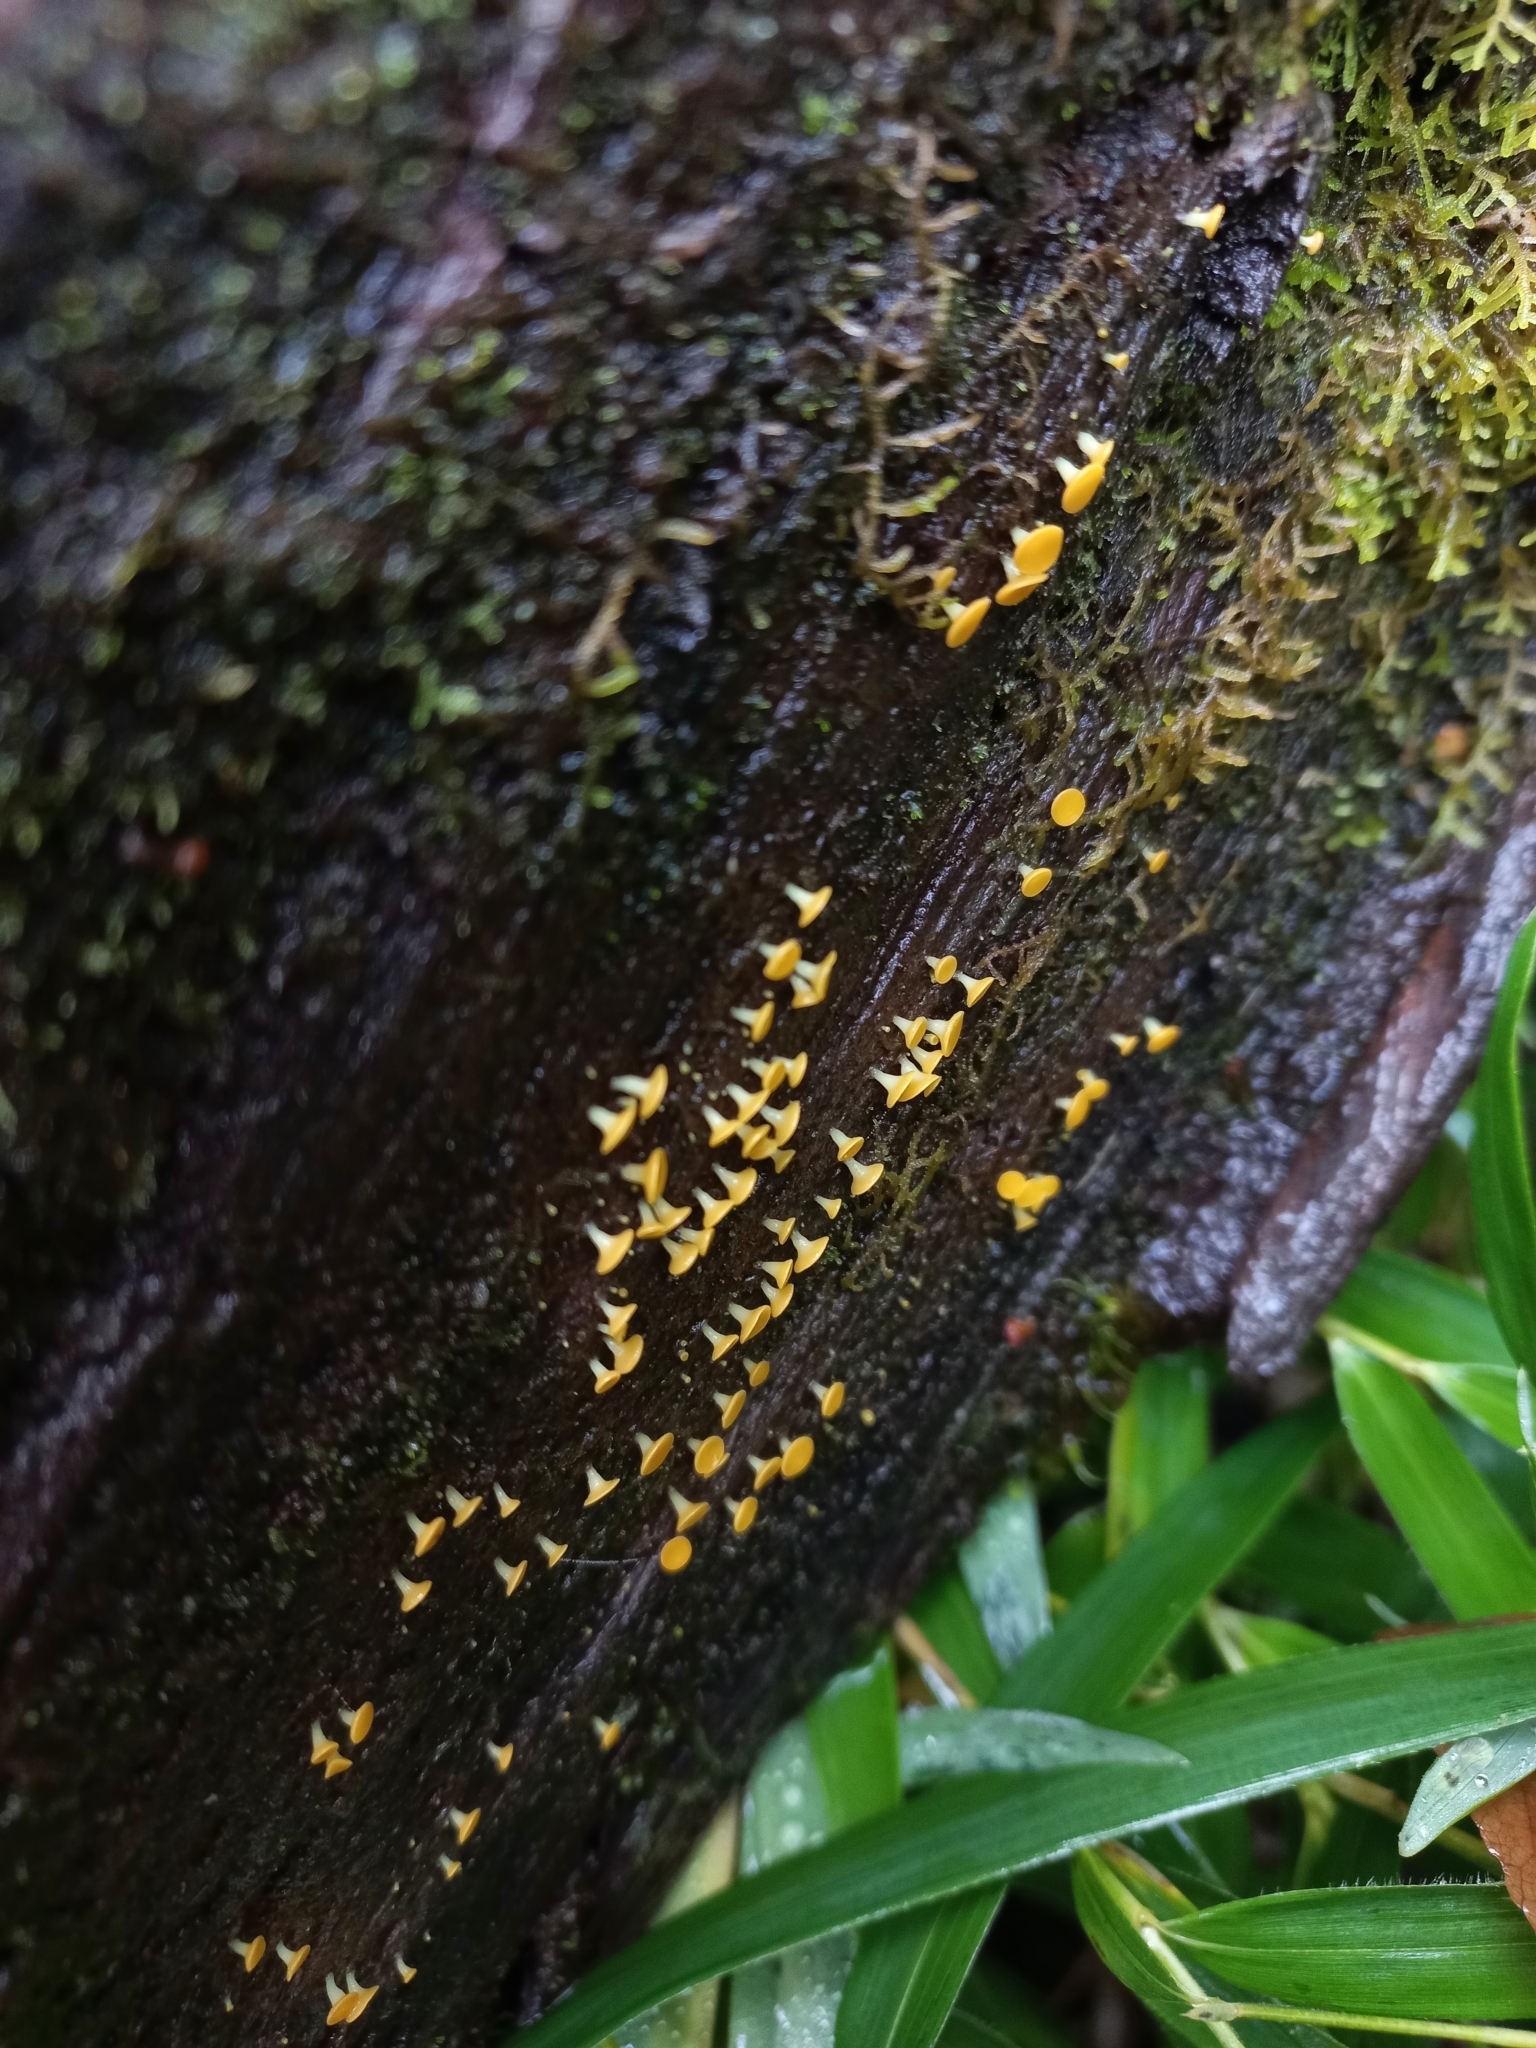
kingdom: Fungi
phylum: Ascomycota
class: Leotiomycetes
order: Helotiales
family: Pezizellaceae
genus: Calycina
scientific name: Calycina citrina
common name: Yellow fairy cups
